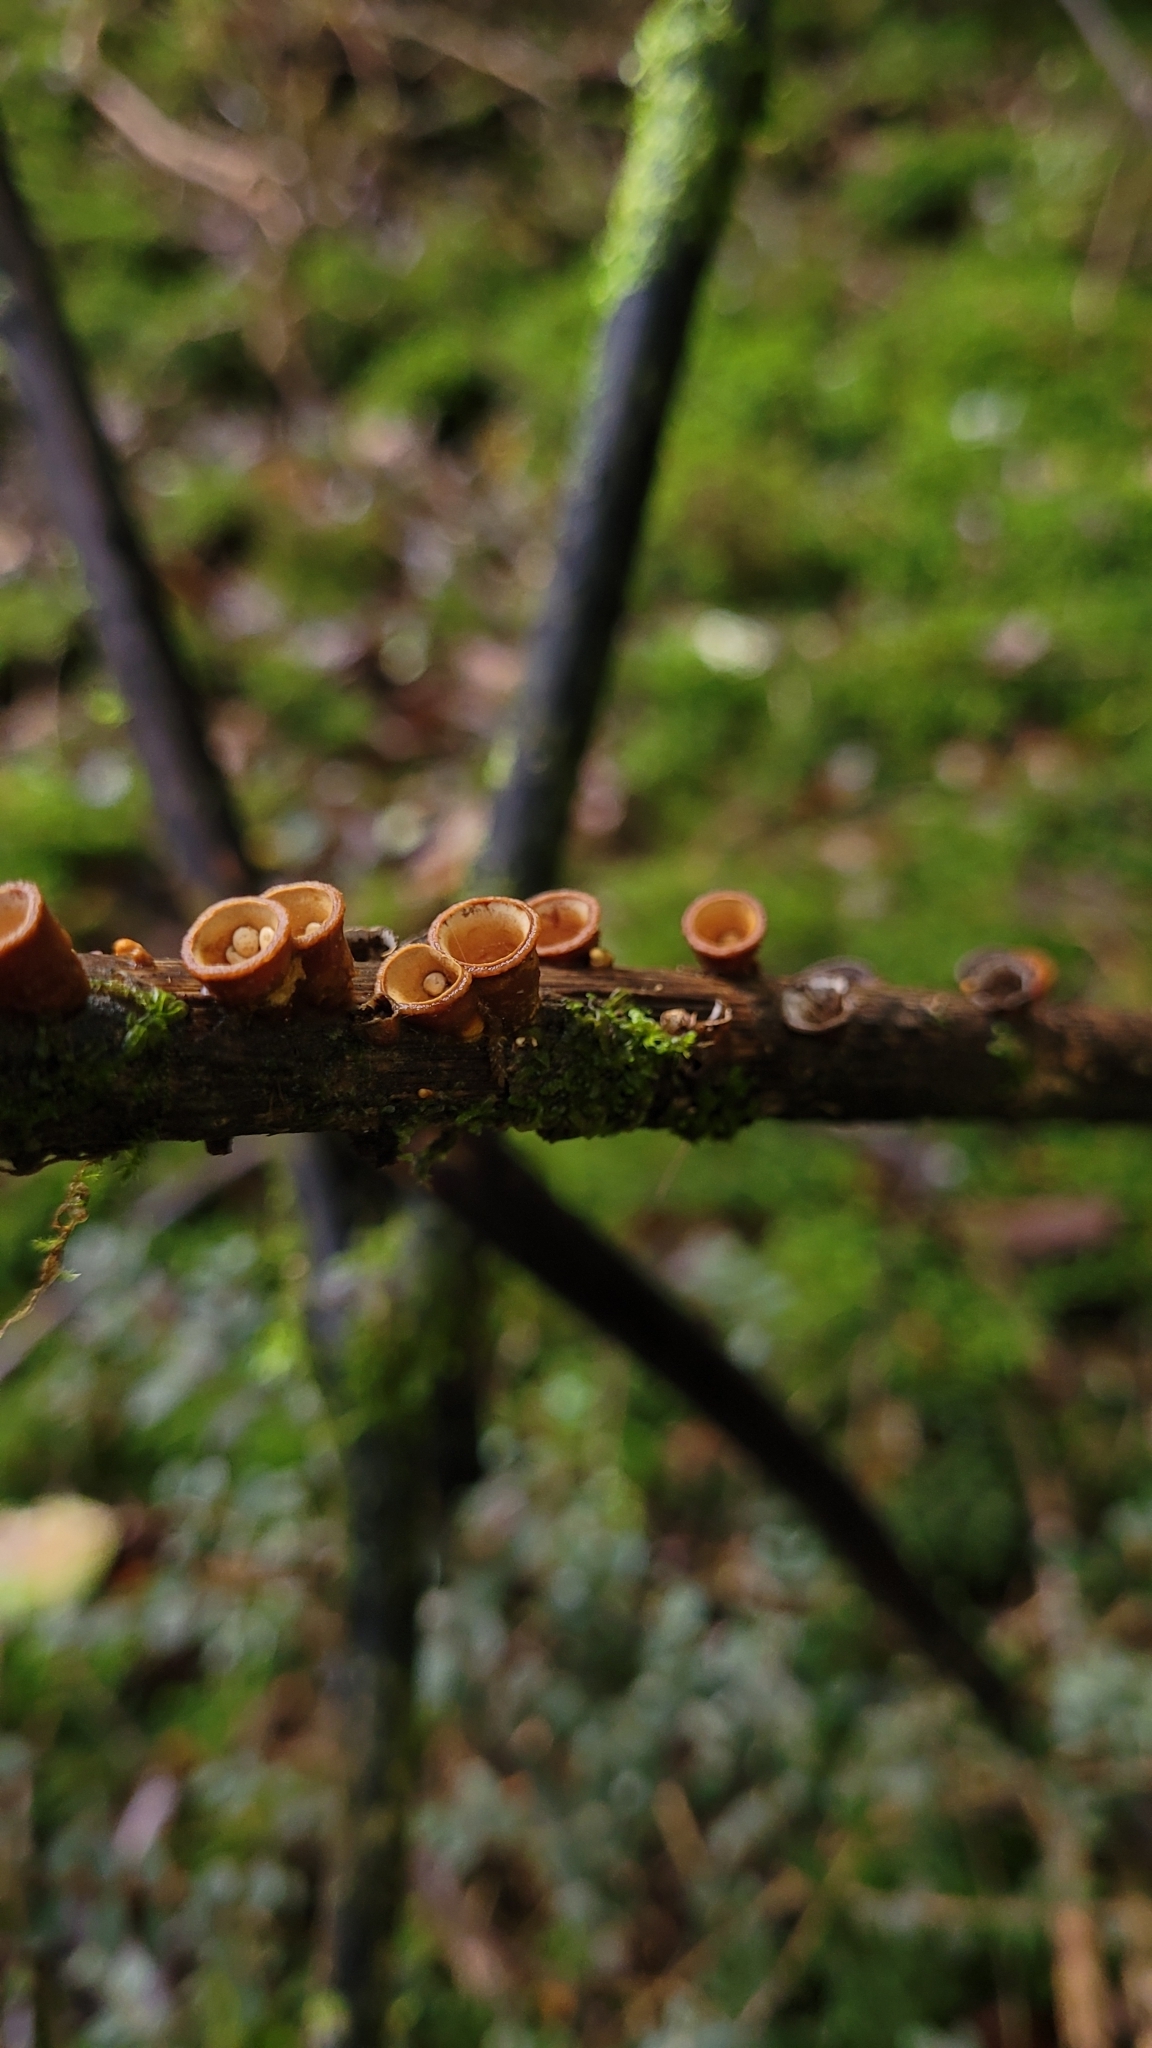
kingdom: Fungi
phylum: Basidiomycota
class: Agaricomycetes
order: Agaricales
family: Nidulariaceae
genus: Crucibulum
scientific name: Crucibulum simile
